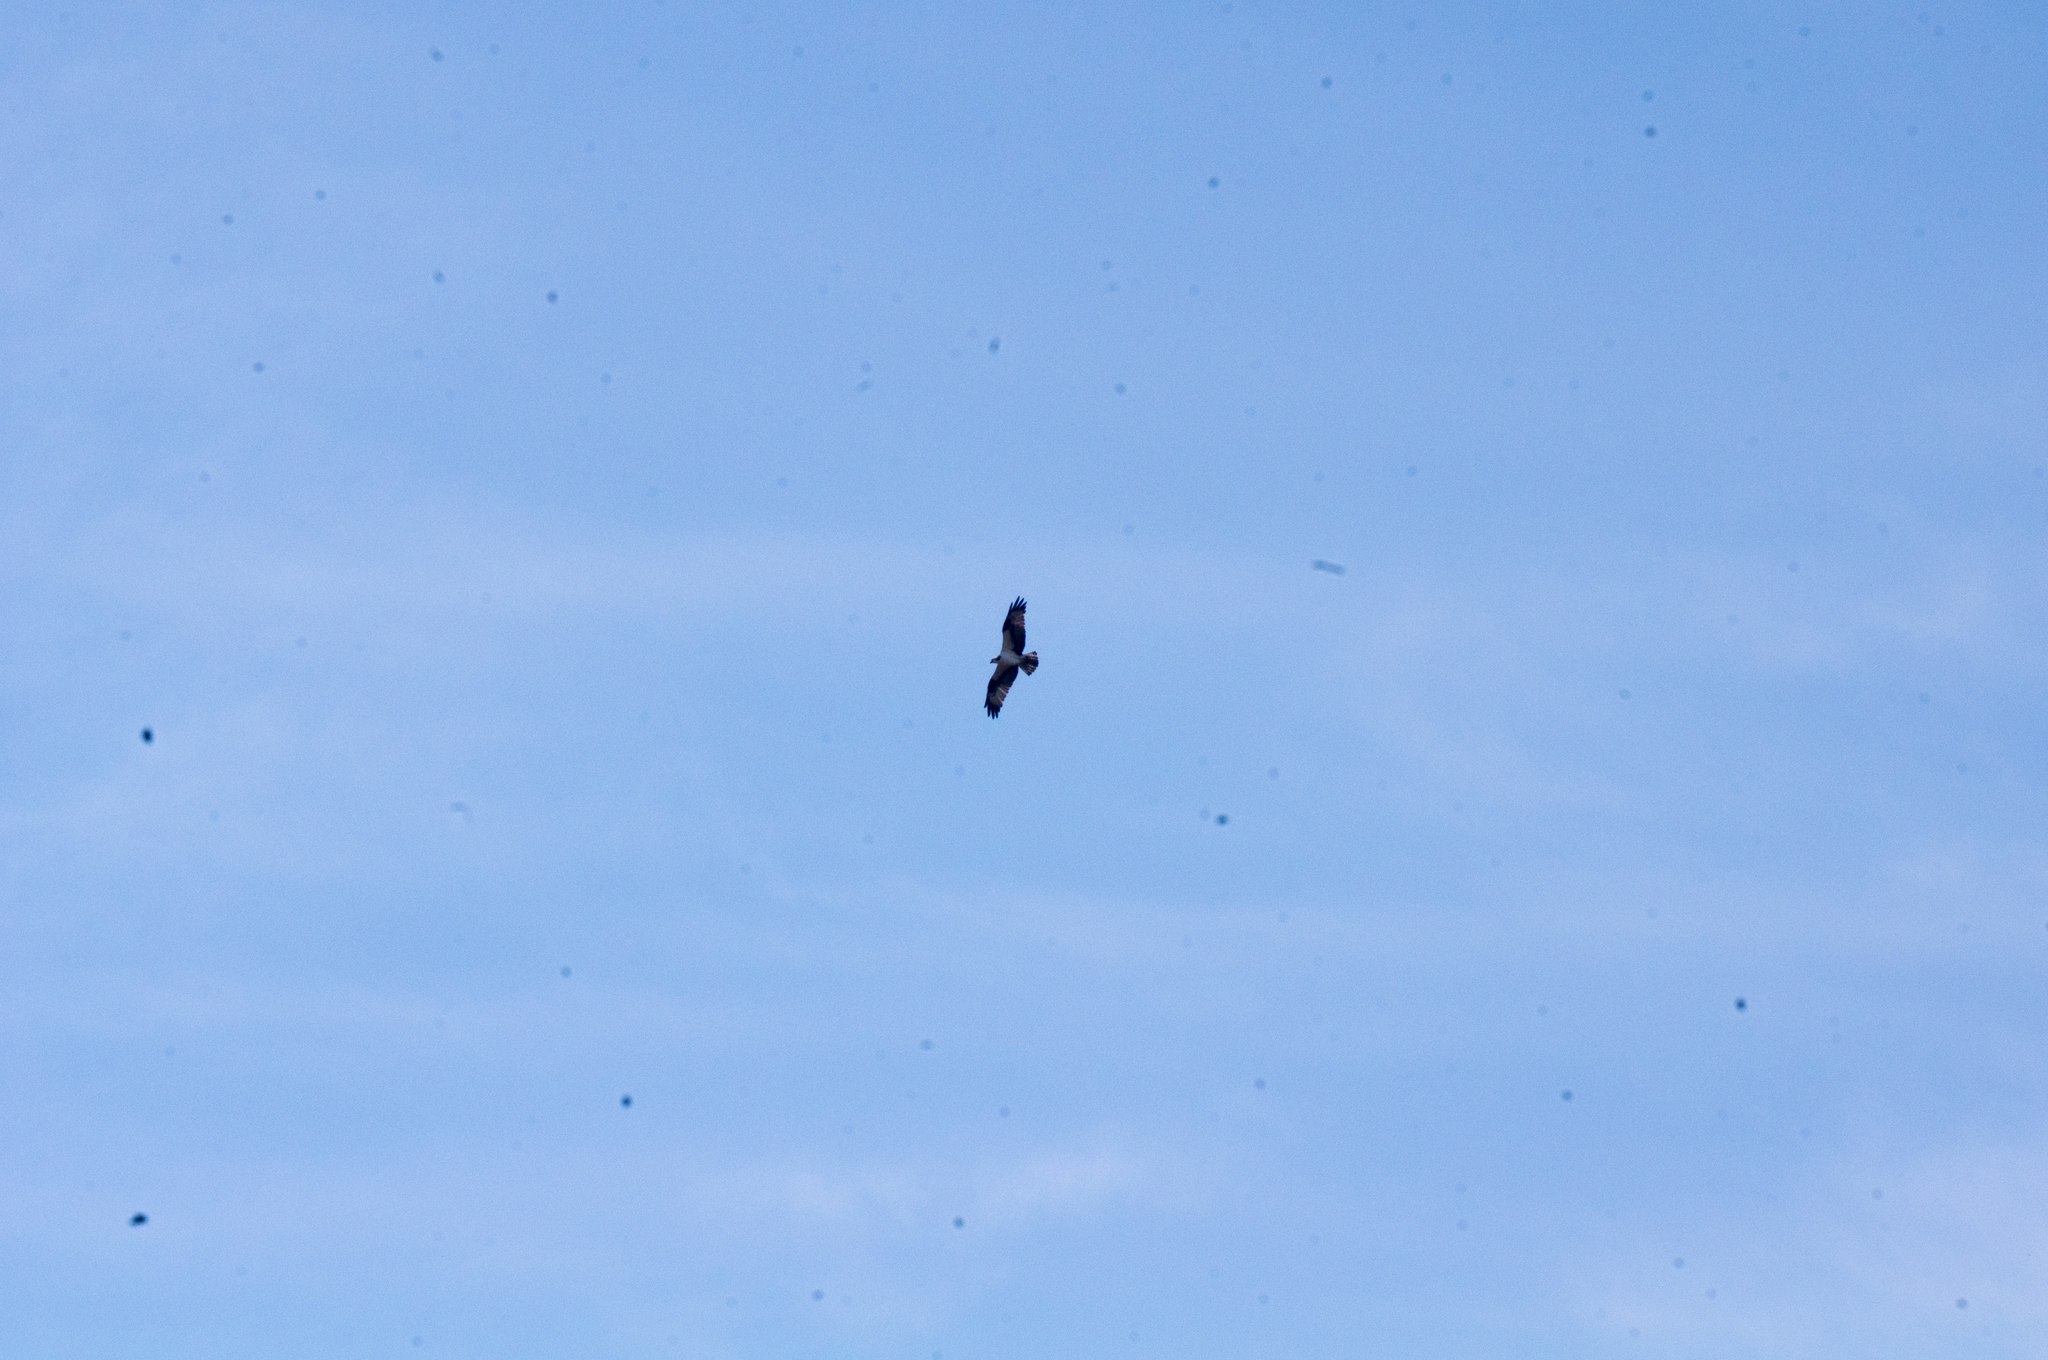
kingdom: Animalia
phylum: Chordata
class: Aves
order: Passeriformes
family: Turdidae
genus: Sialia
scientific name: Sialia sialis
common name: Eastern bluebird
